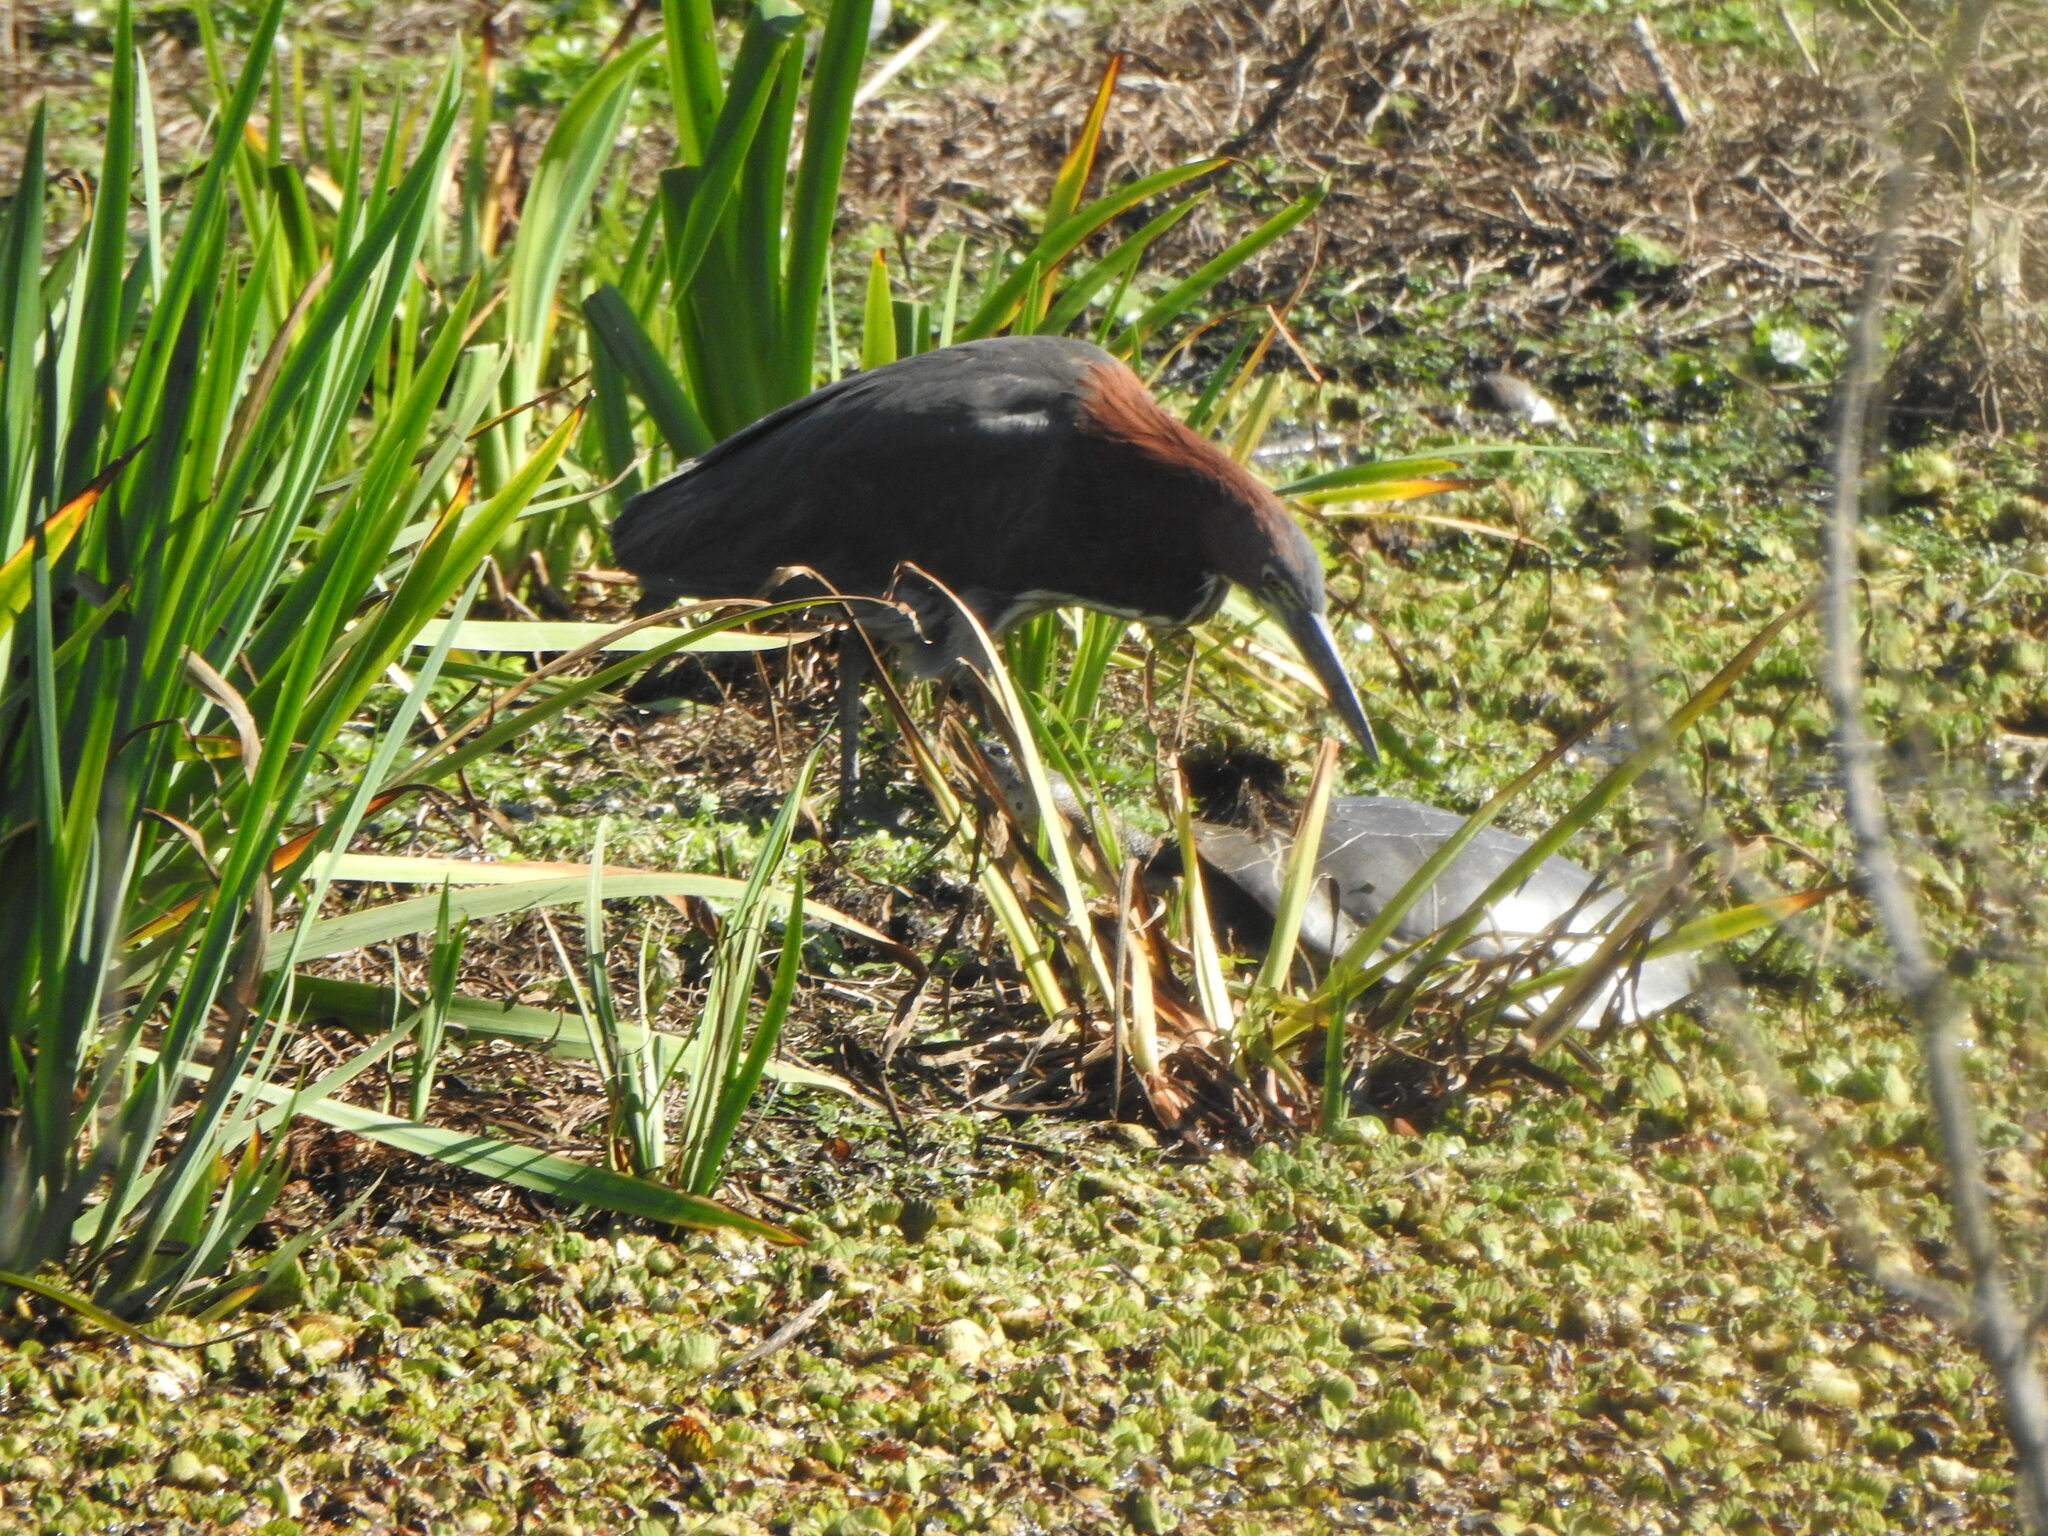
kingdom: Animalia
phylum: Chordata
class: Aves
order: Pelecaniformes
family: Ardeidae
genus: Tigrisoma
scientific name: Tigrisoma lineatum
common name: Rufescent tiger-heron
